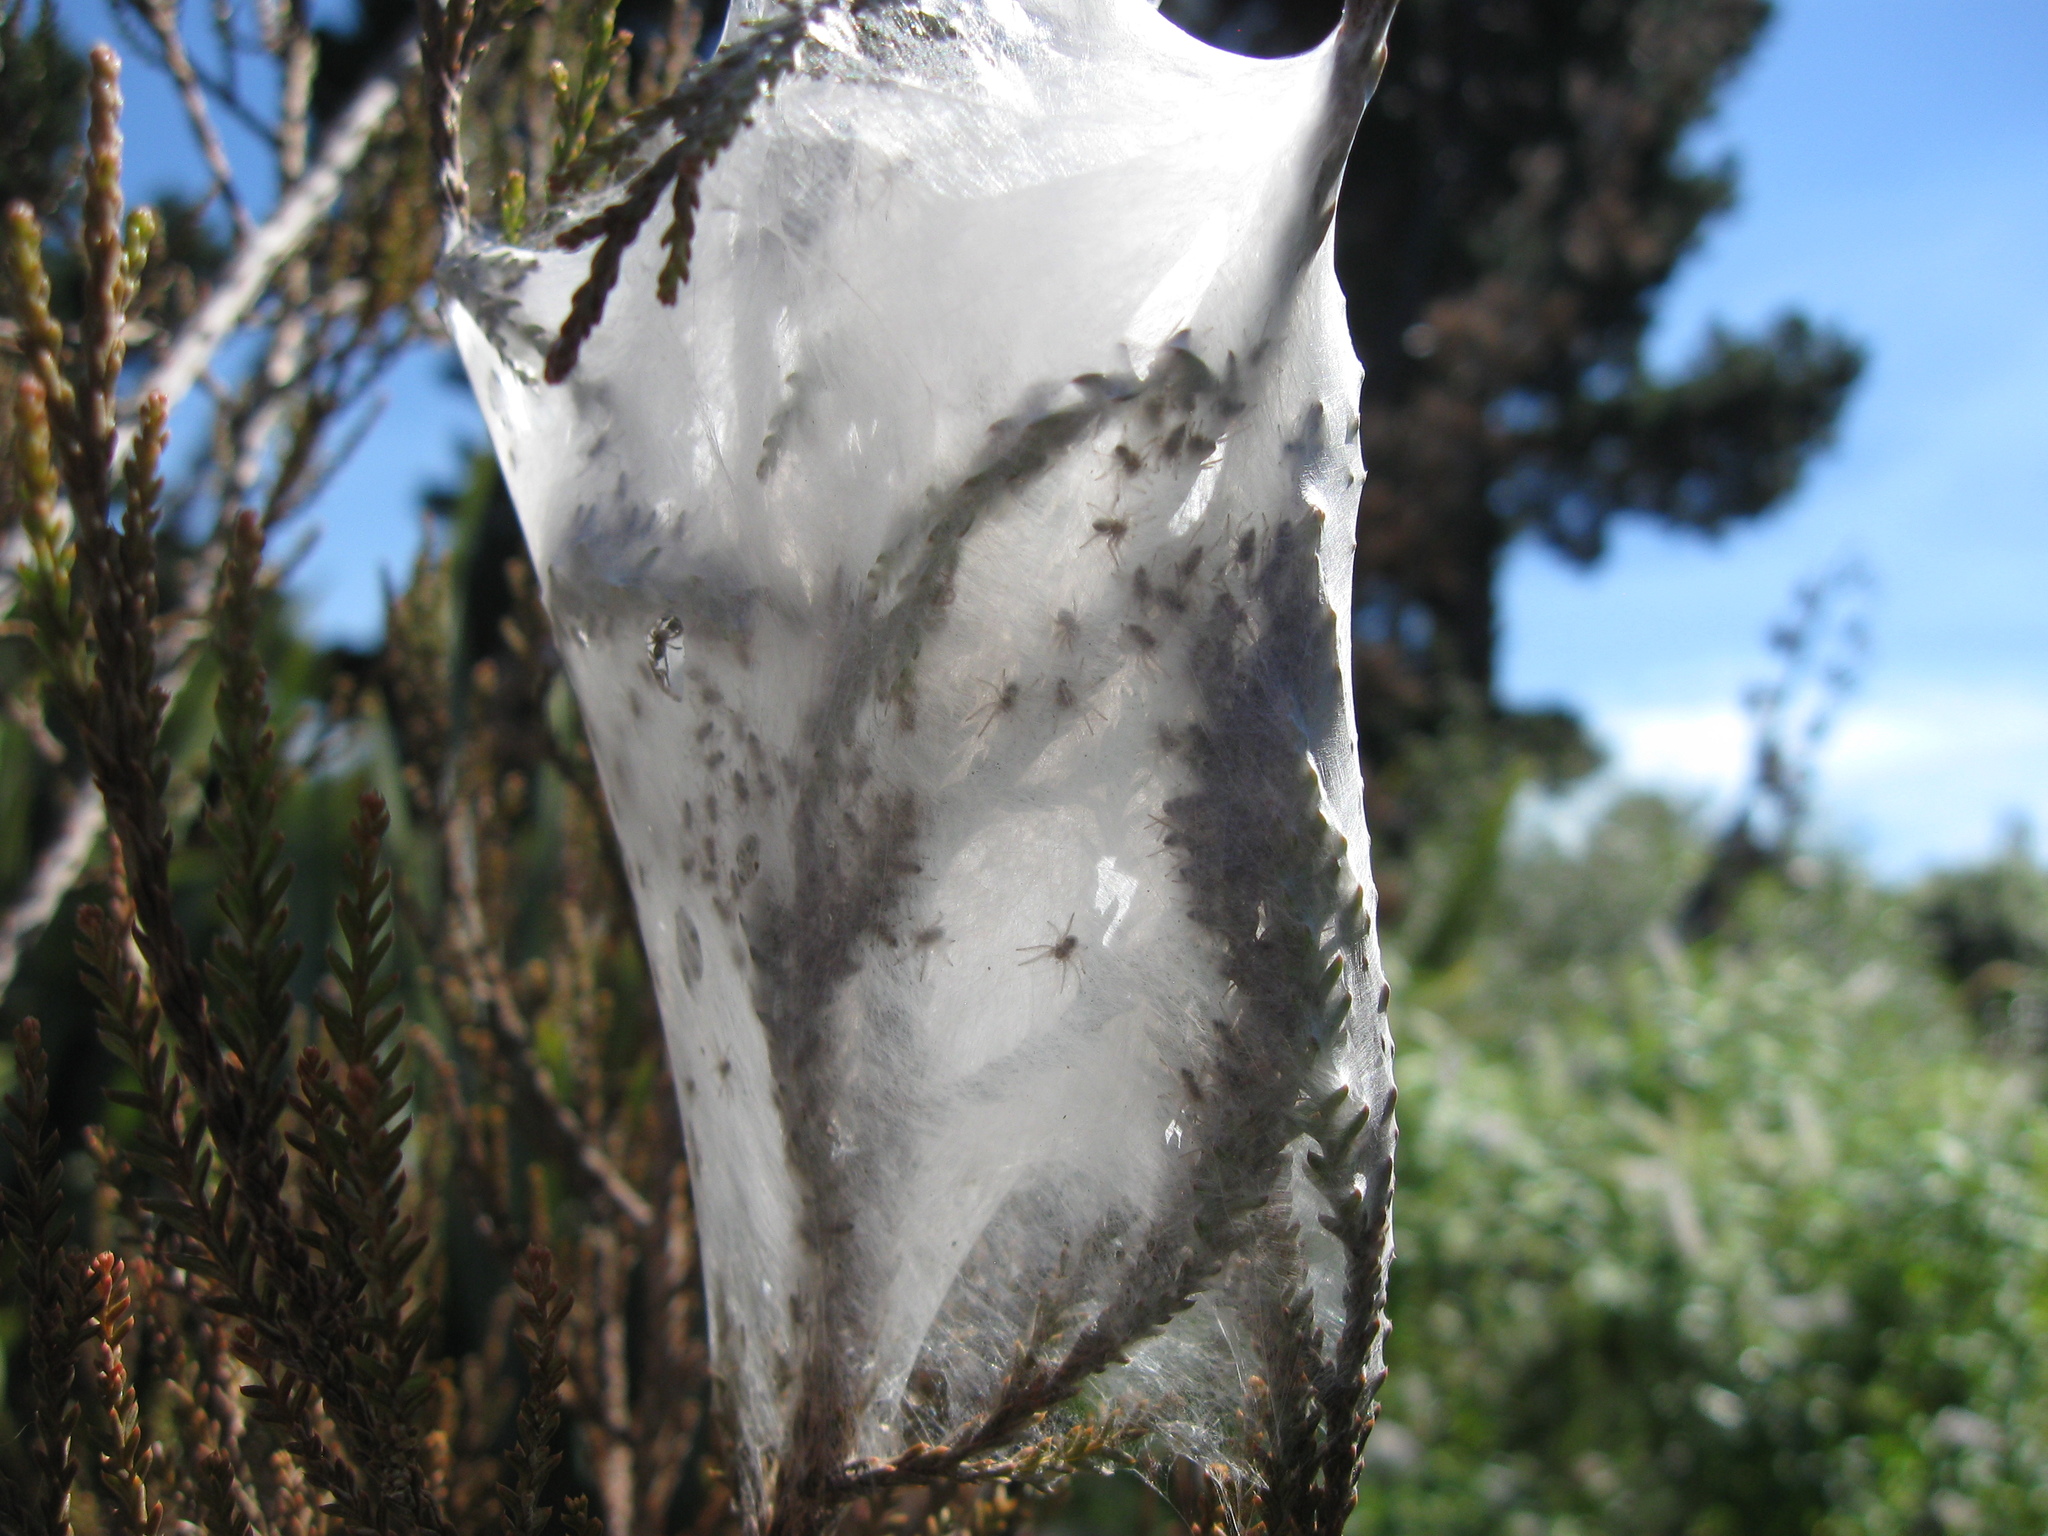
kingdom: Animalia
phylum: Arthropoda
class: Arachnida
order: Araneae
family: Pisauridae
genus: Dolomedes
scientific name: Dolomedes minor
